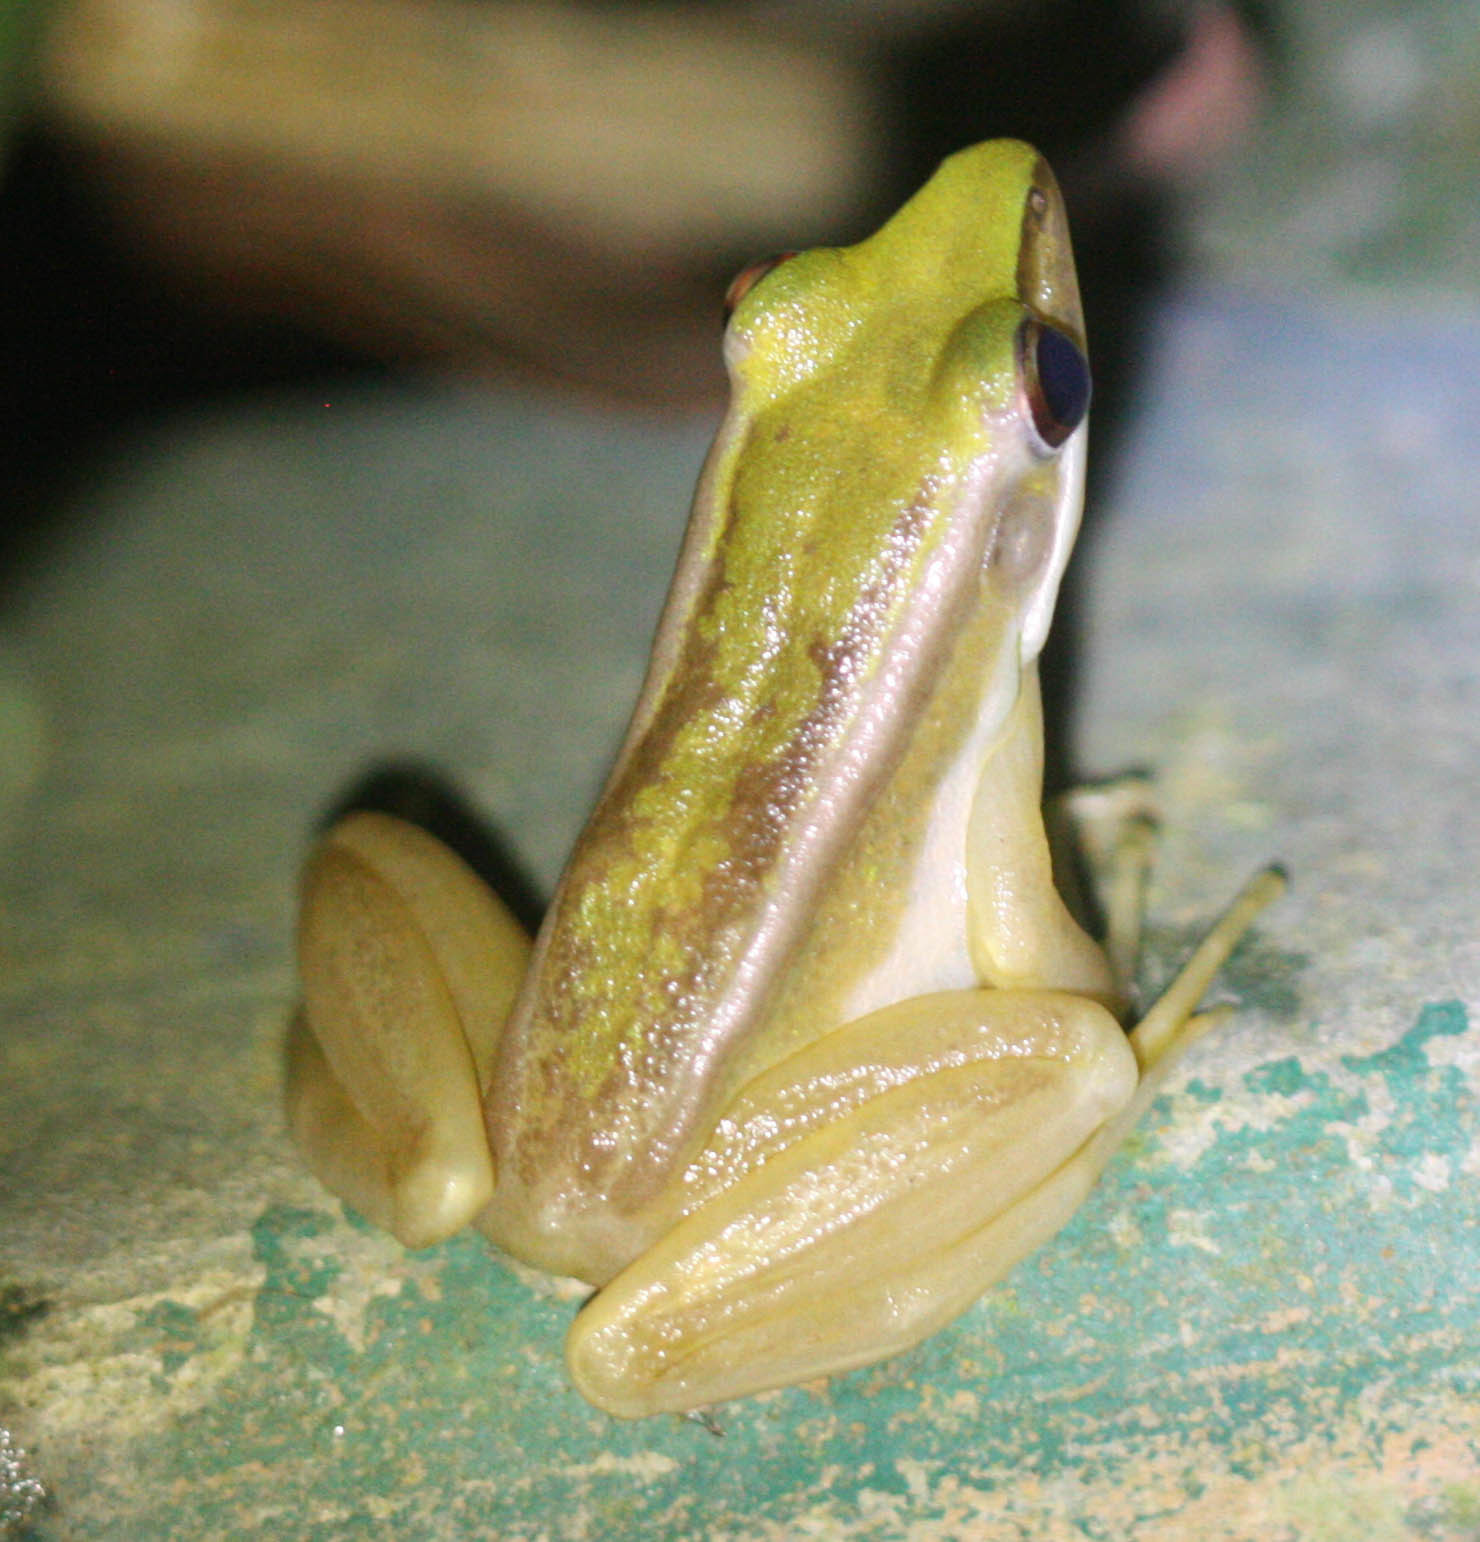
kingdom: Animalia
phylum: Chordata
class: Amphibia
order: Anura
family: Ranidae
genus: Hylarana
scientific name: Hylarana erythraea
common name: Common green frog/green paddy frog/leaf frog
